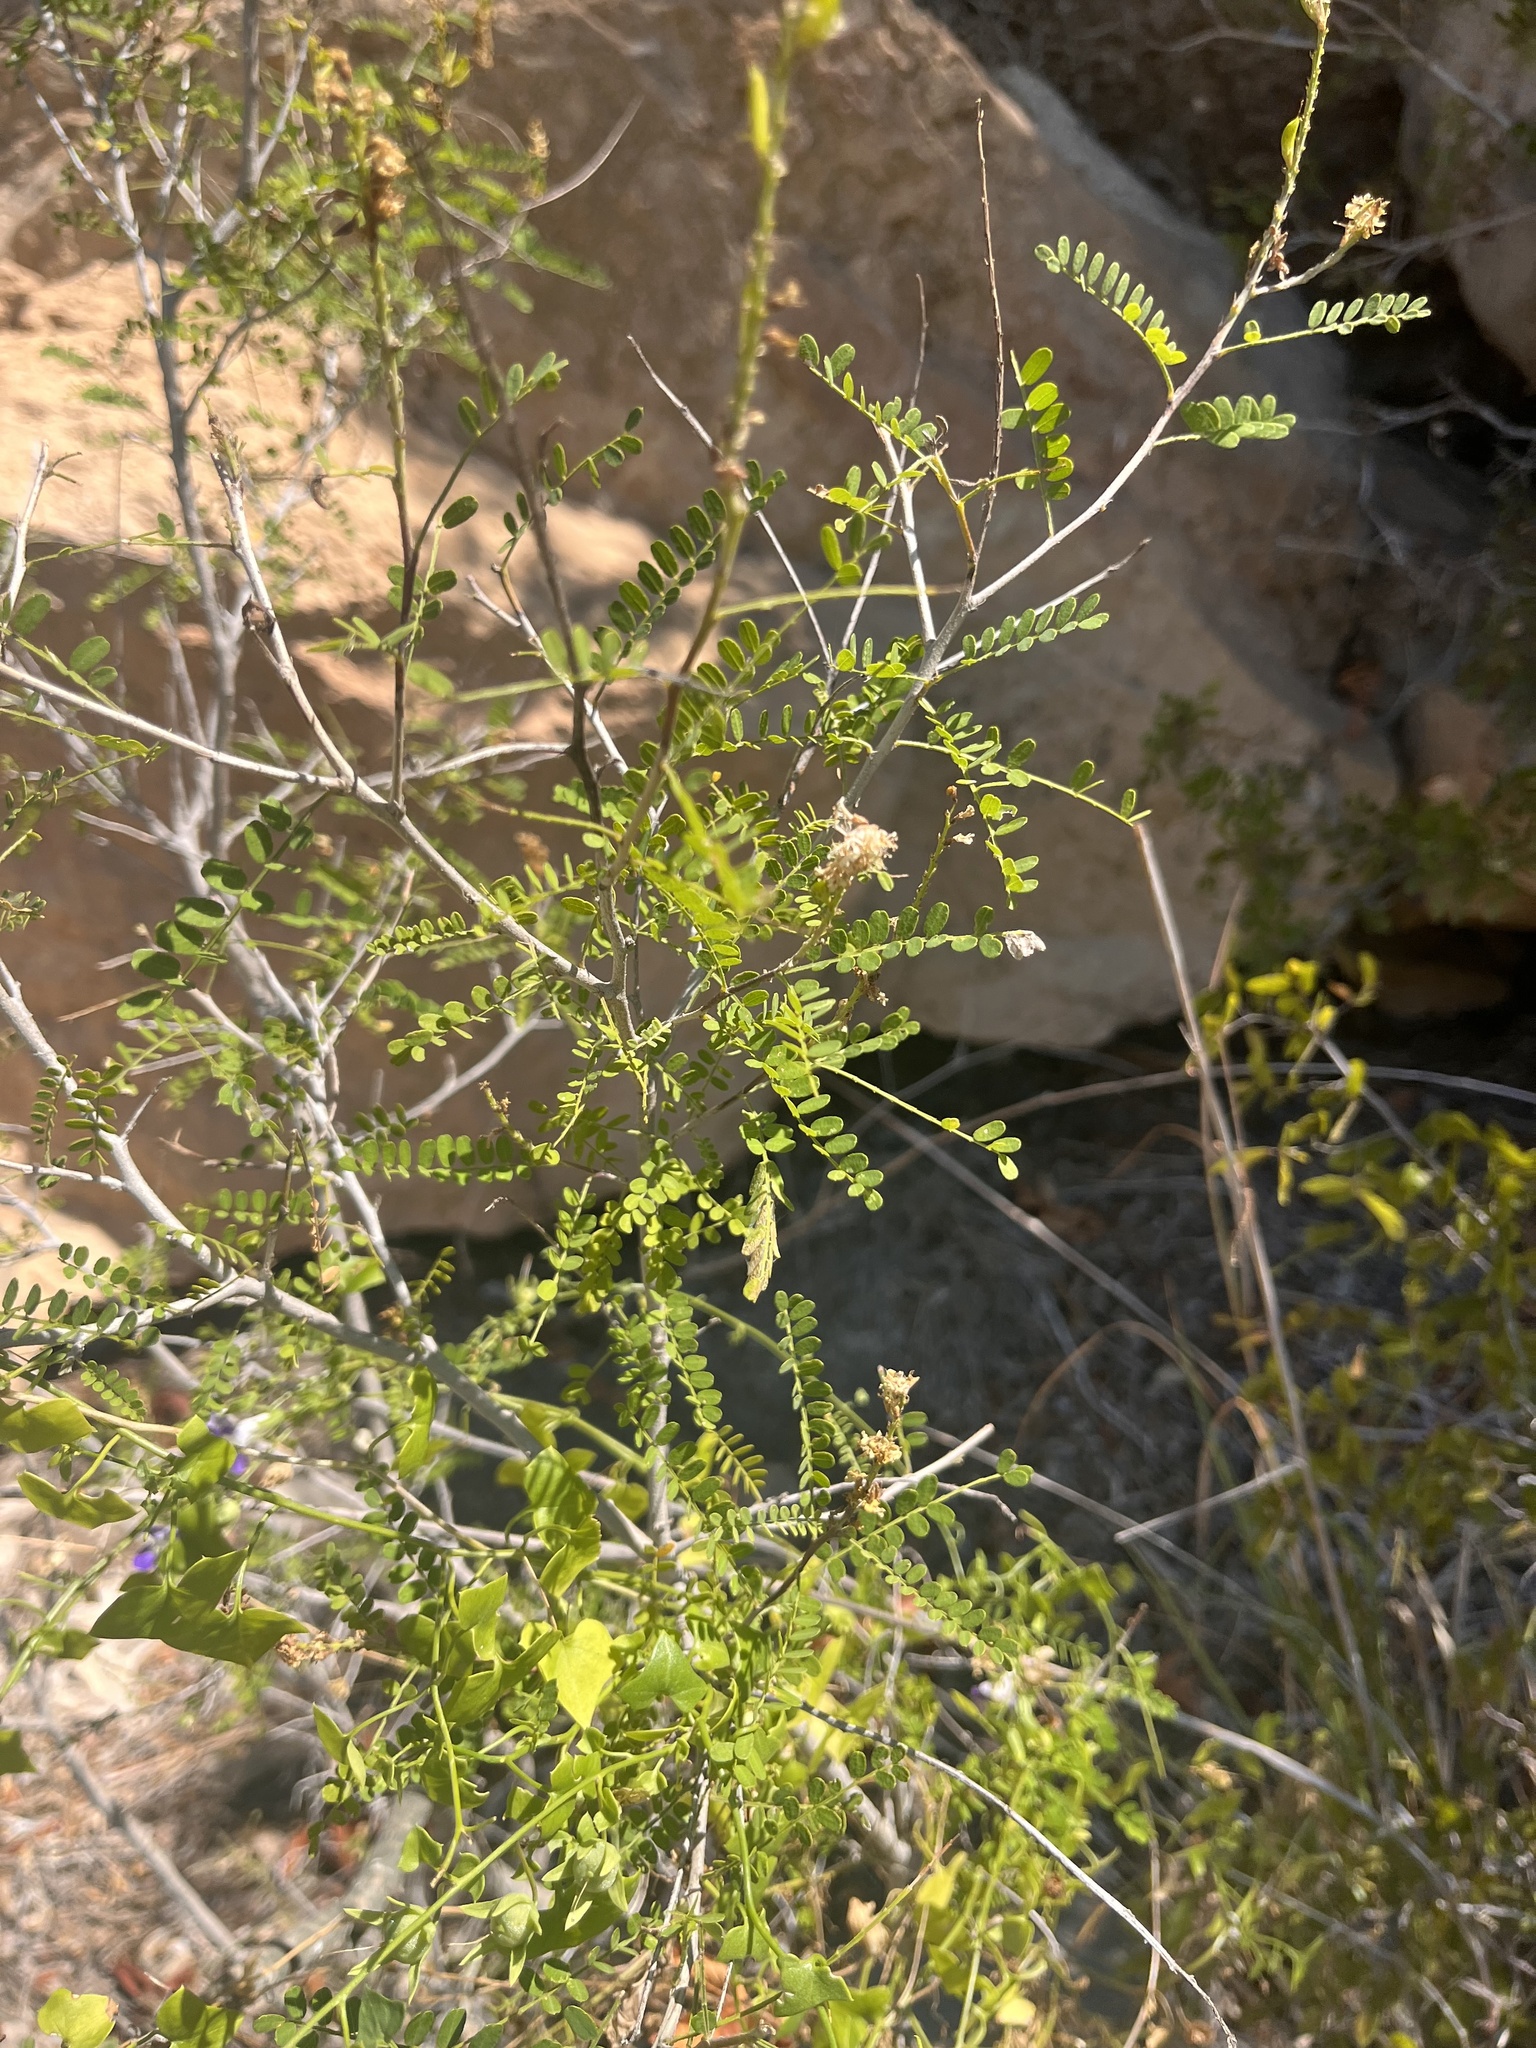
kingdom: Plantae
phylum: Tracheophyta
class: Magnoliopsida
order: Fabales
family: Fabaceae
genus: Eysenhardtia
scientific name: Eysenhardtia texana
